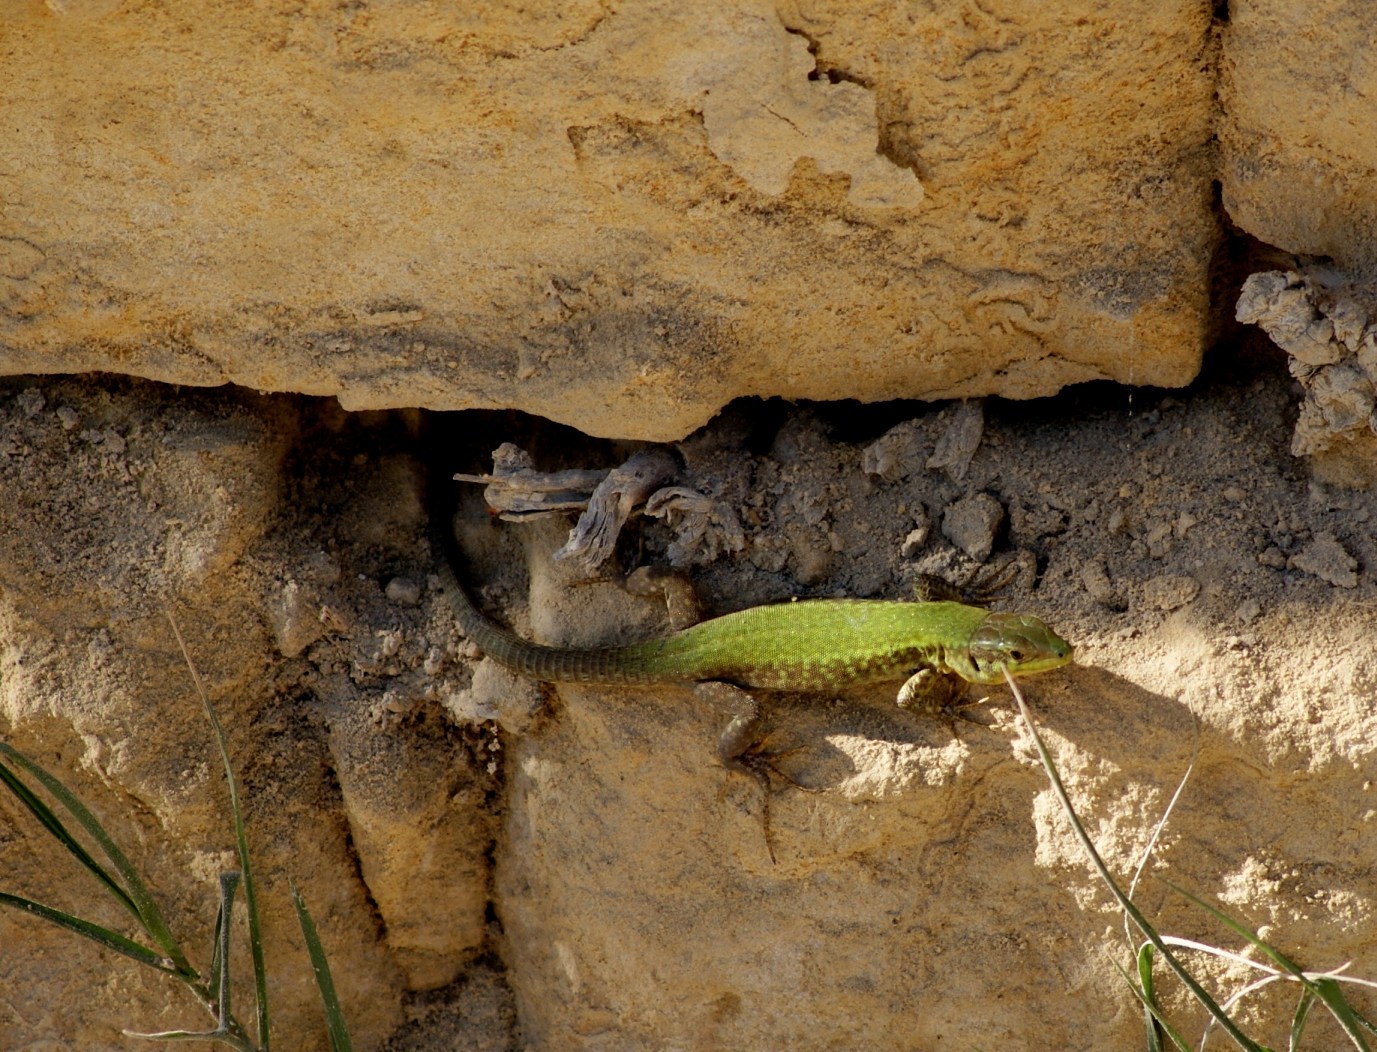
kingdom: Animalia
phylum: Chordata
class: Squamata
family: Lacertidae
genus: Podarcis
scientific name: Podarcis filfolensis
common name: Maltese wall lizard
